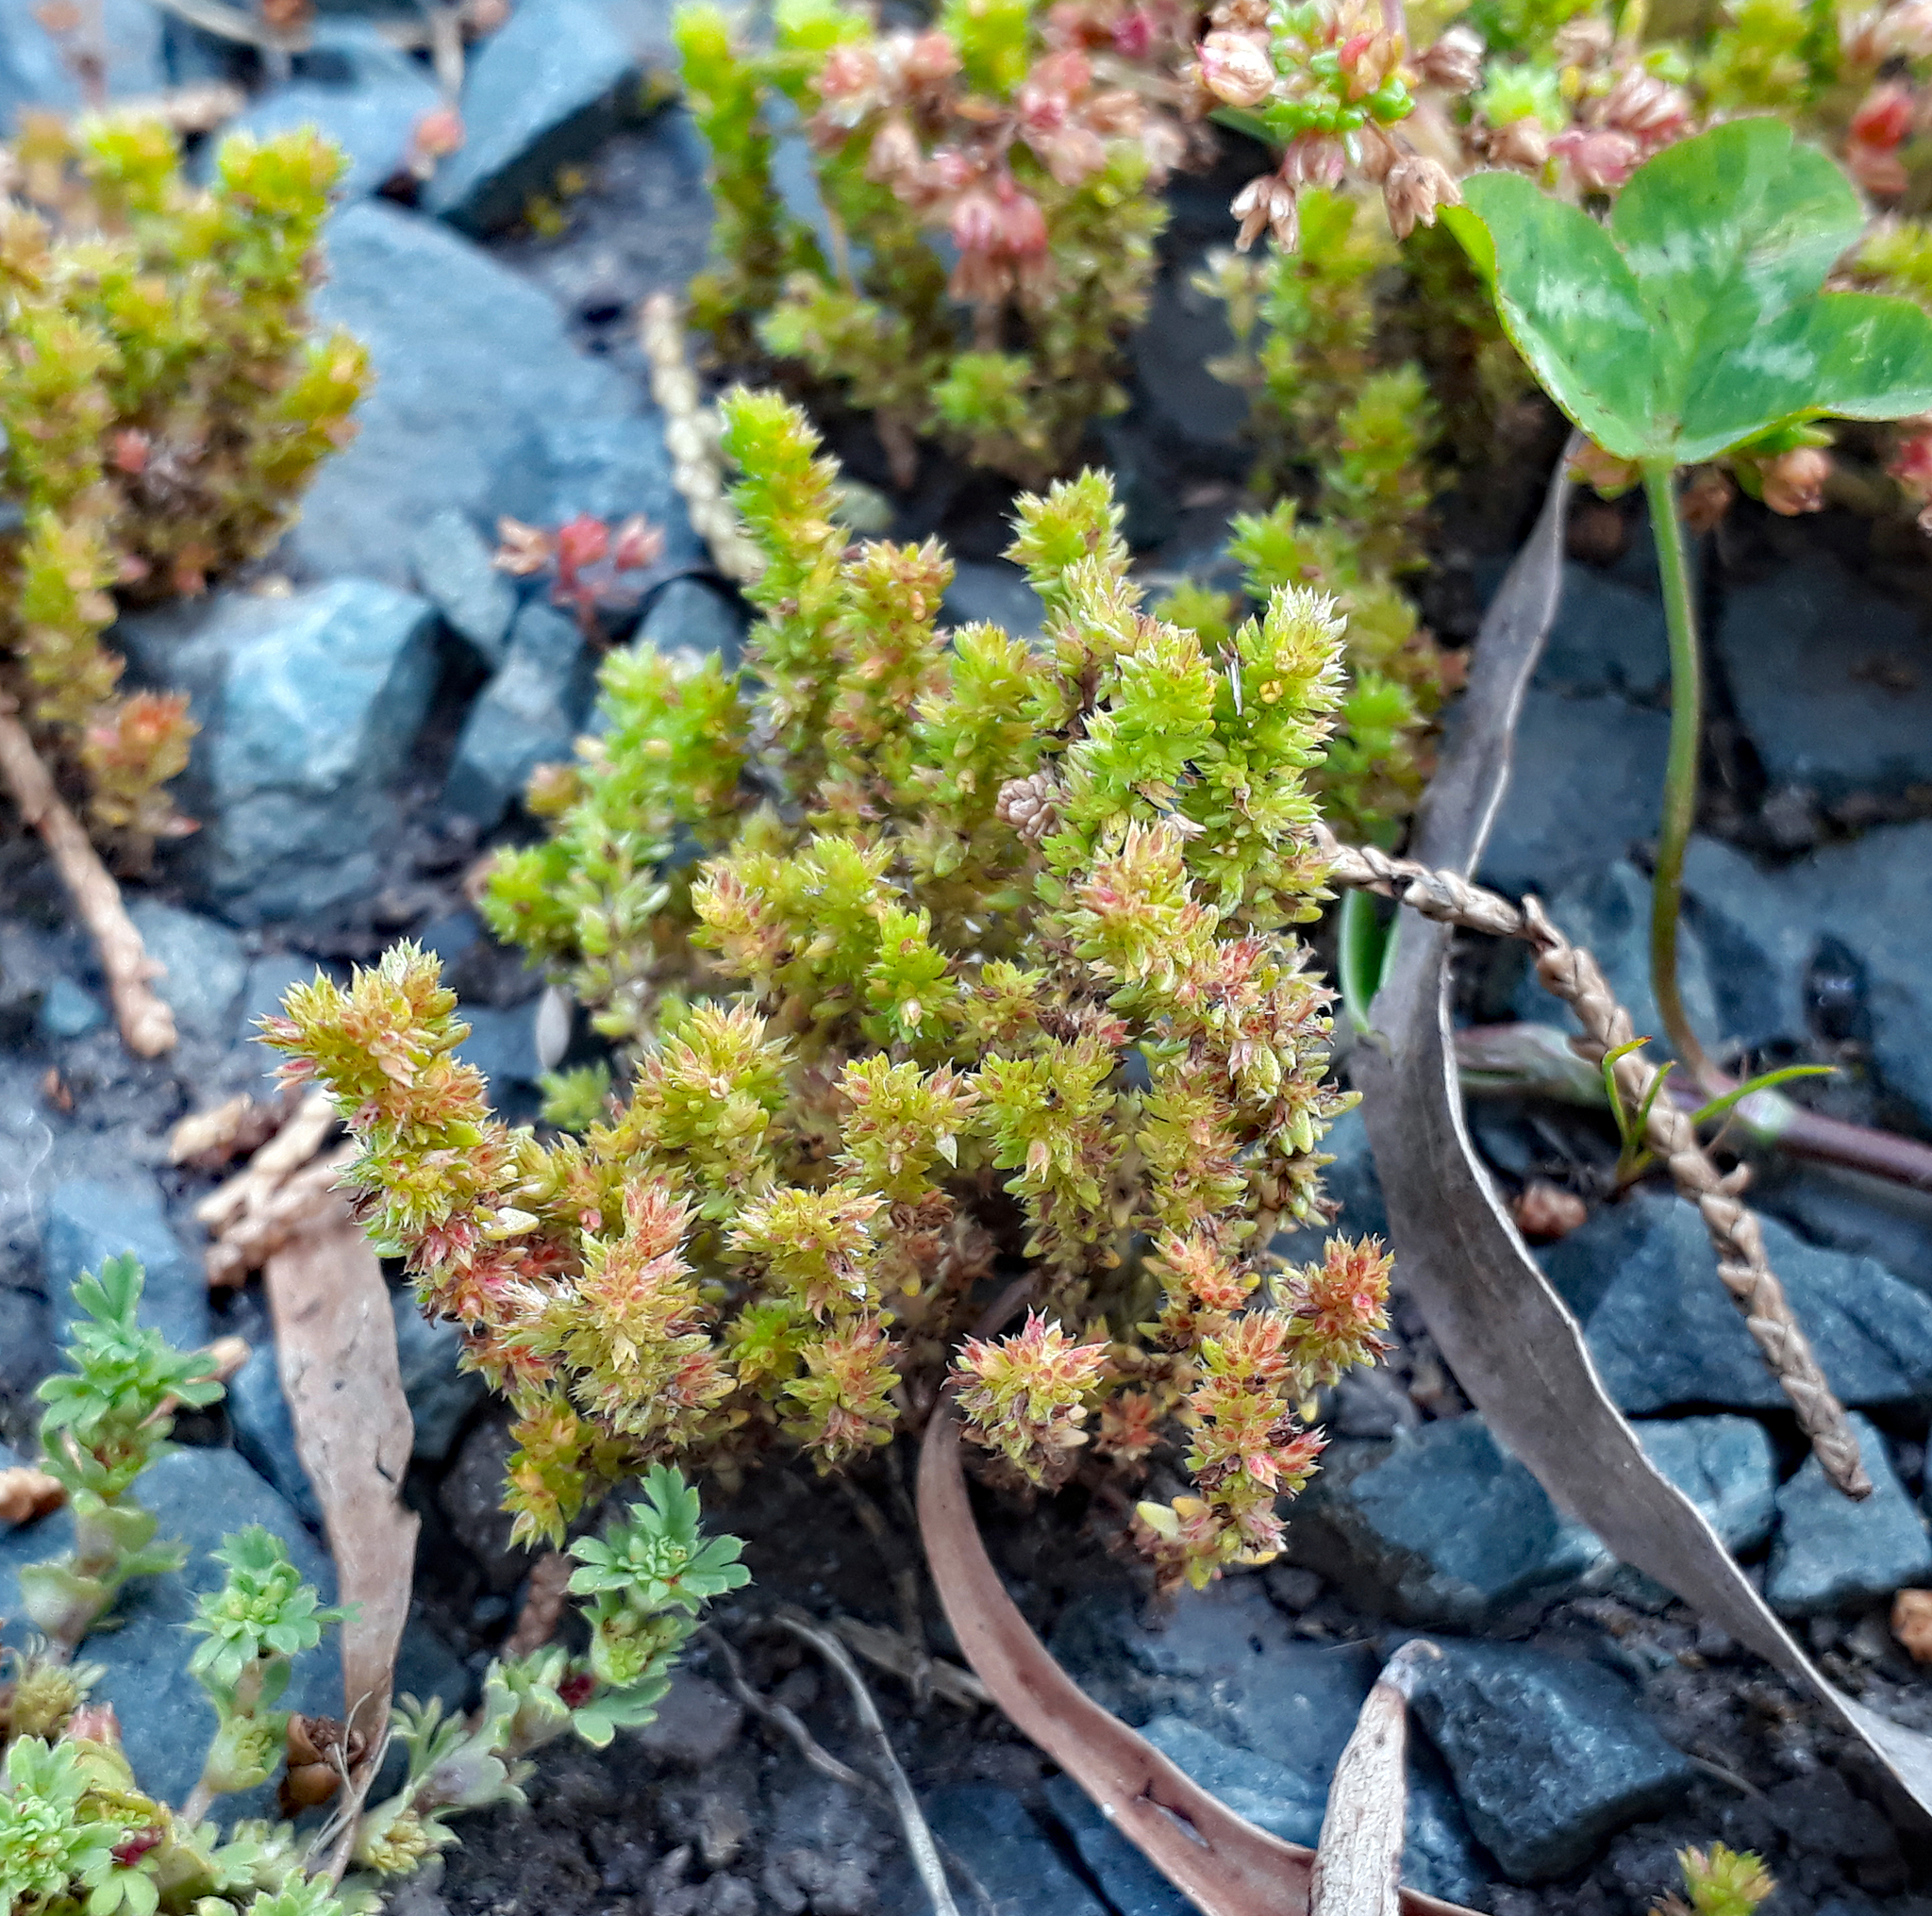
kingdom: Plantae
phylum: Tracheophyta
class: Magnoliopsida
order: Saxifragales
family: Crassulaceae
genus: Crassula
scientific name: Crassula alata
